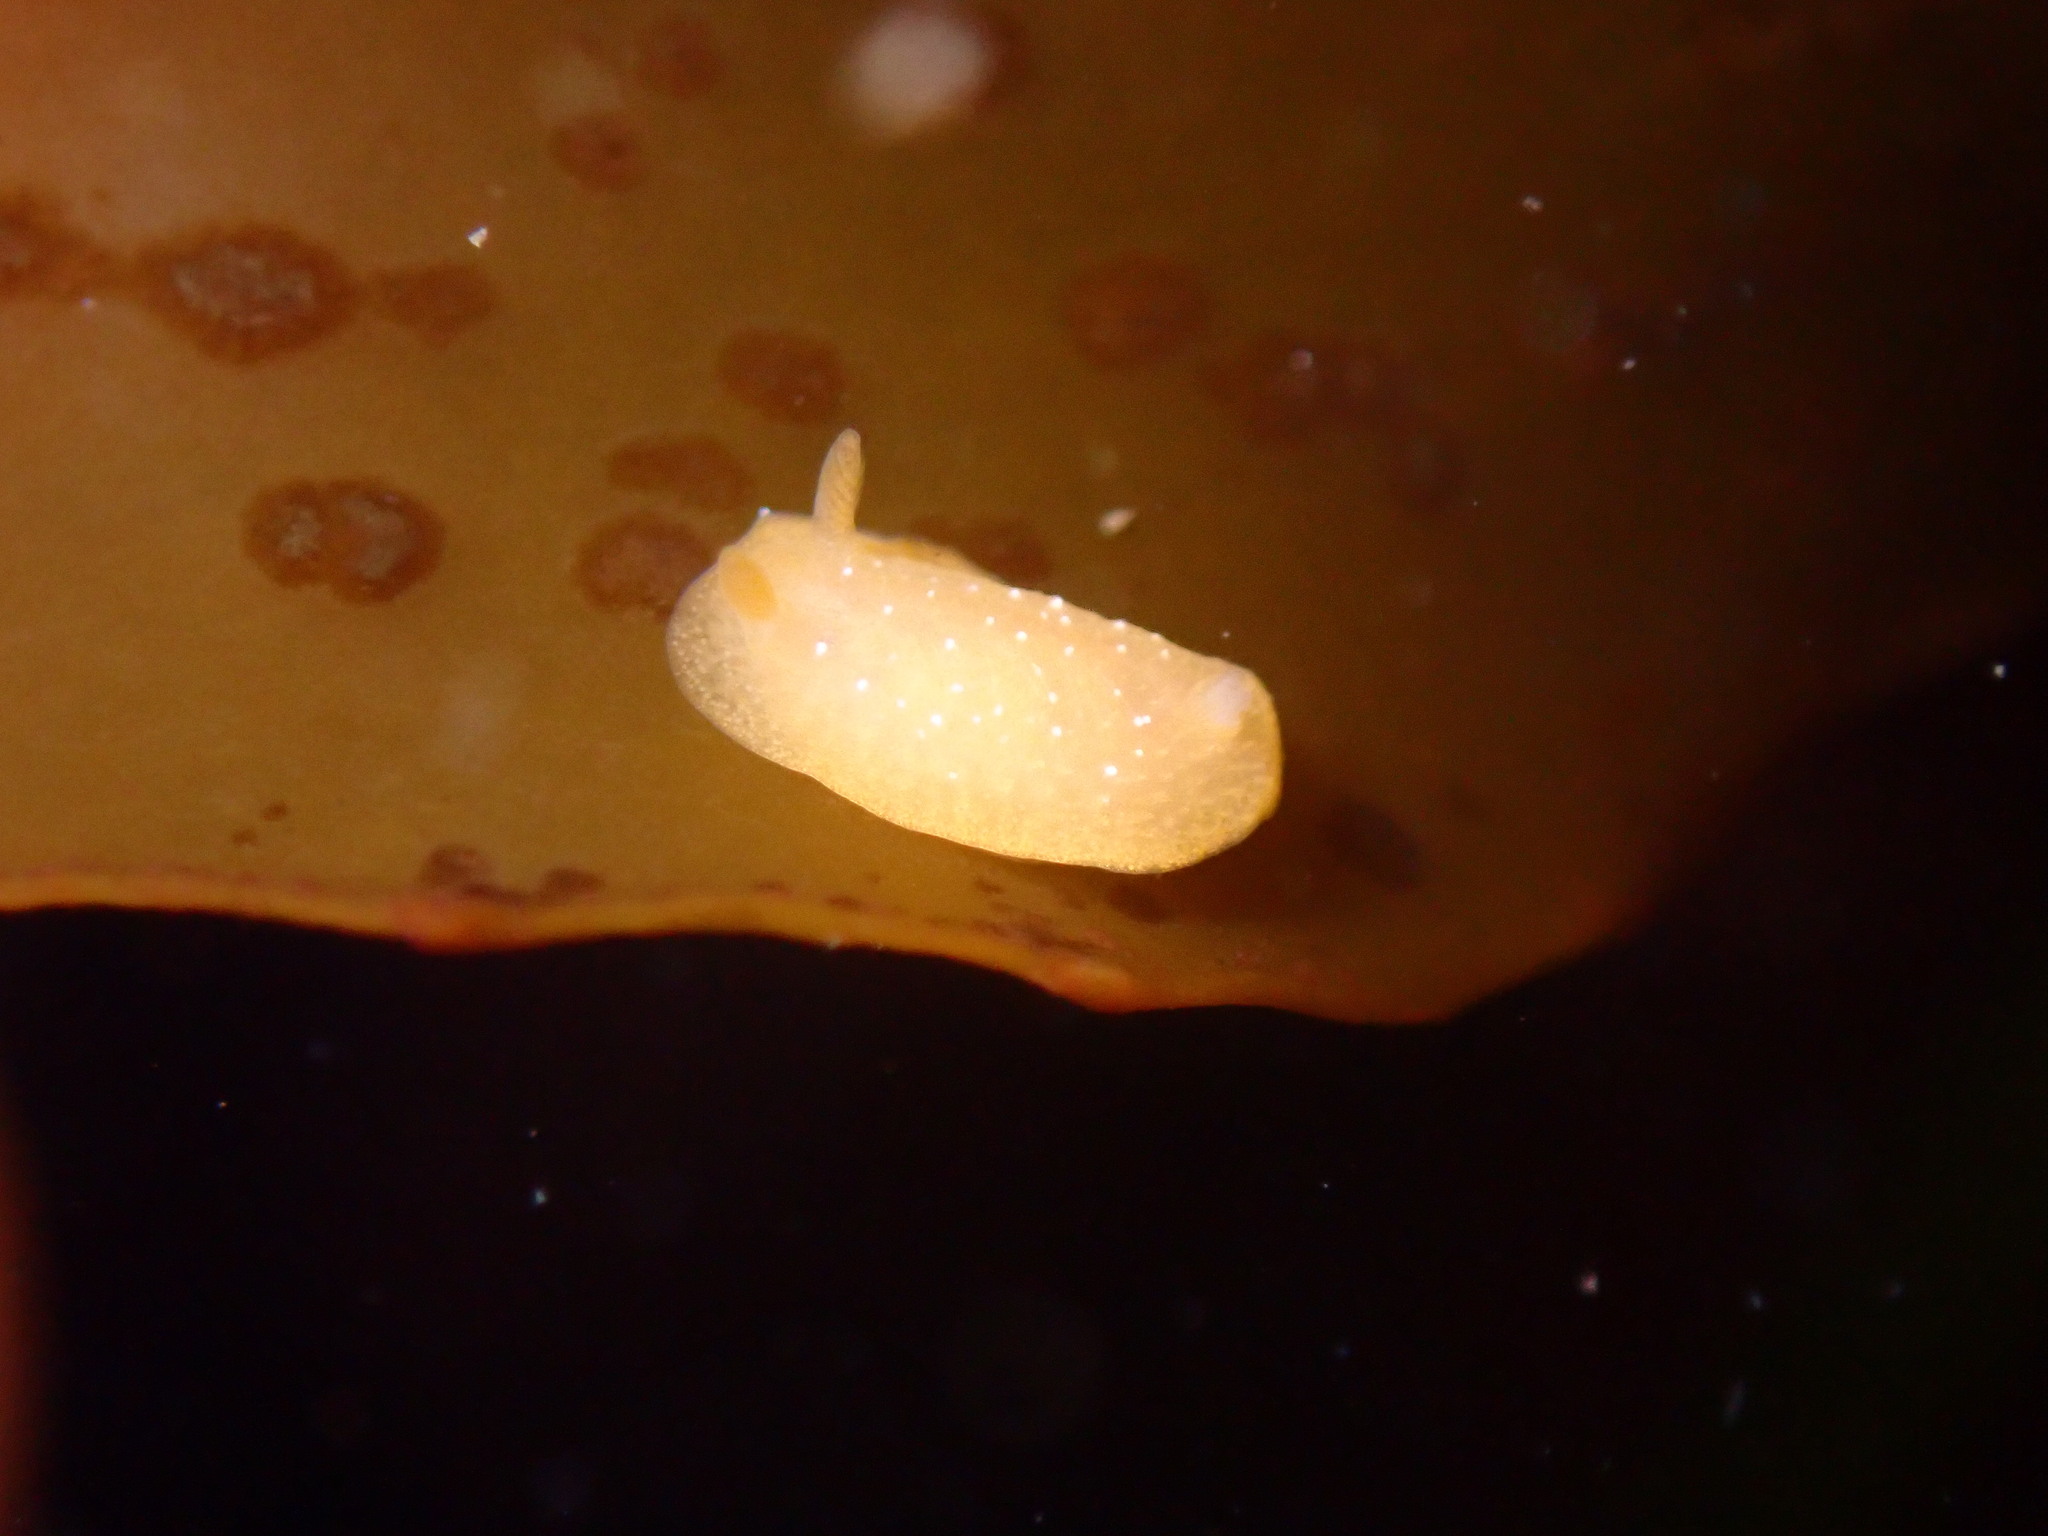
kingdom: Animalia
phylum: Mollusca
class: Gastropoda
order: Nudibranchia
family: Dendrodorididae
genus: Doriopsilla
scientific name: Doriopsilla fulva
